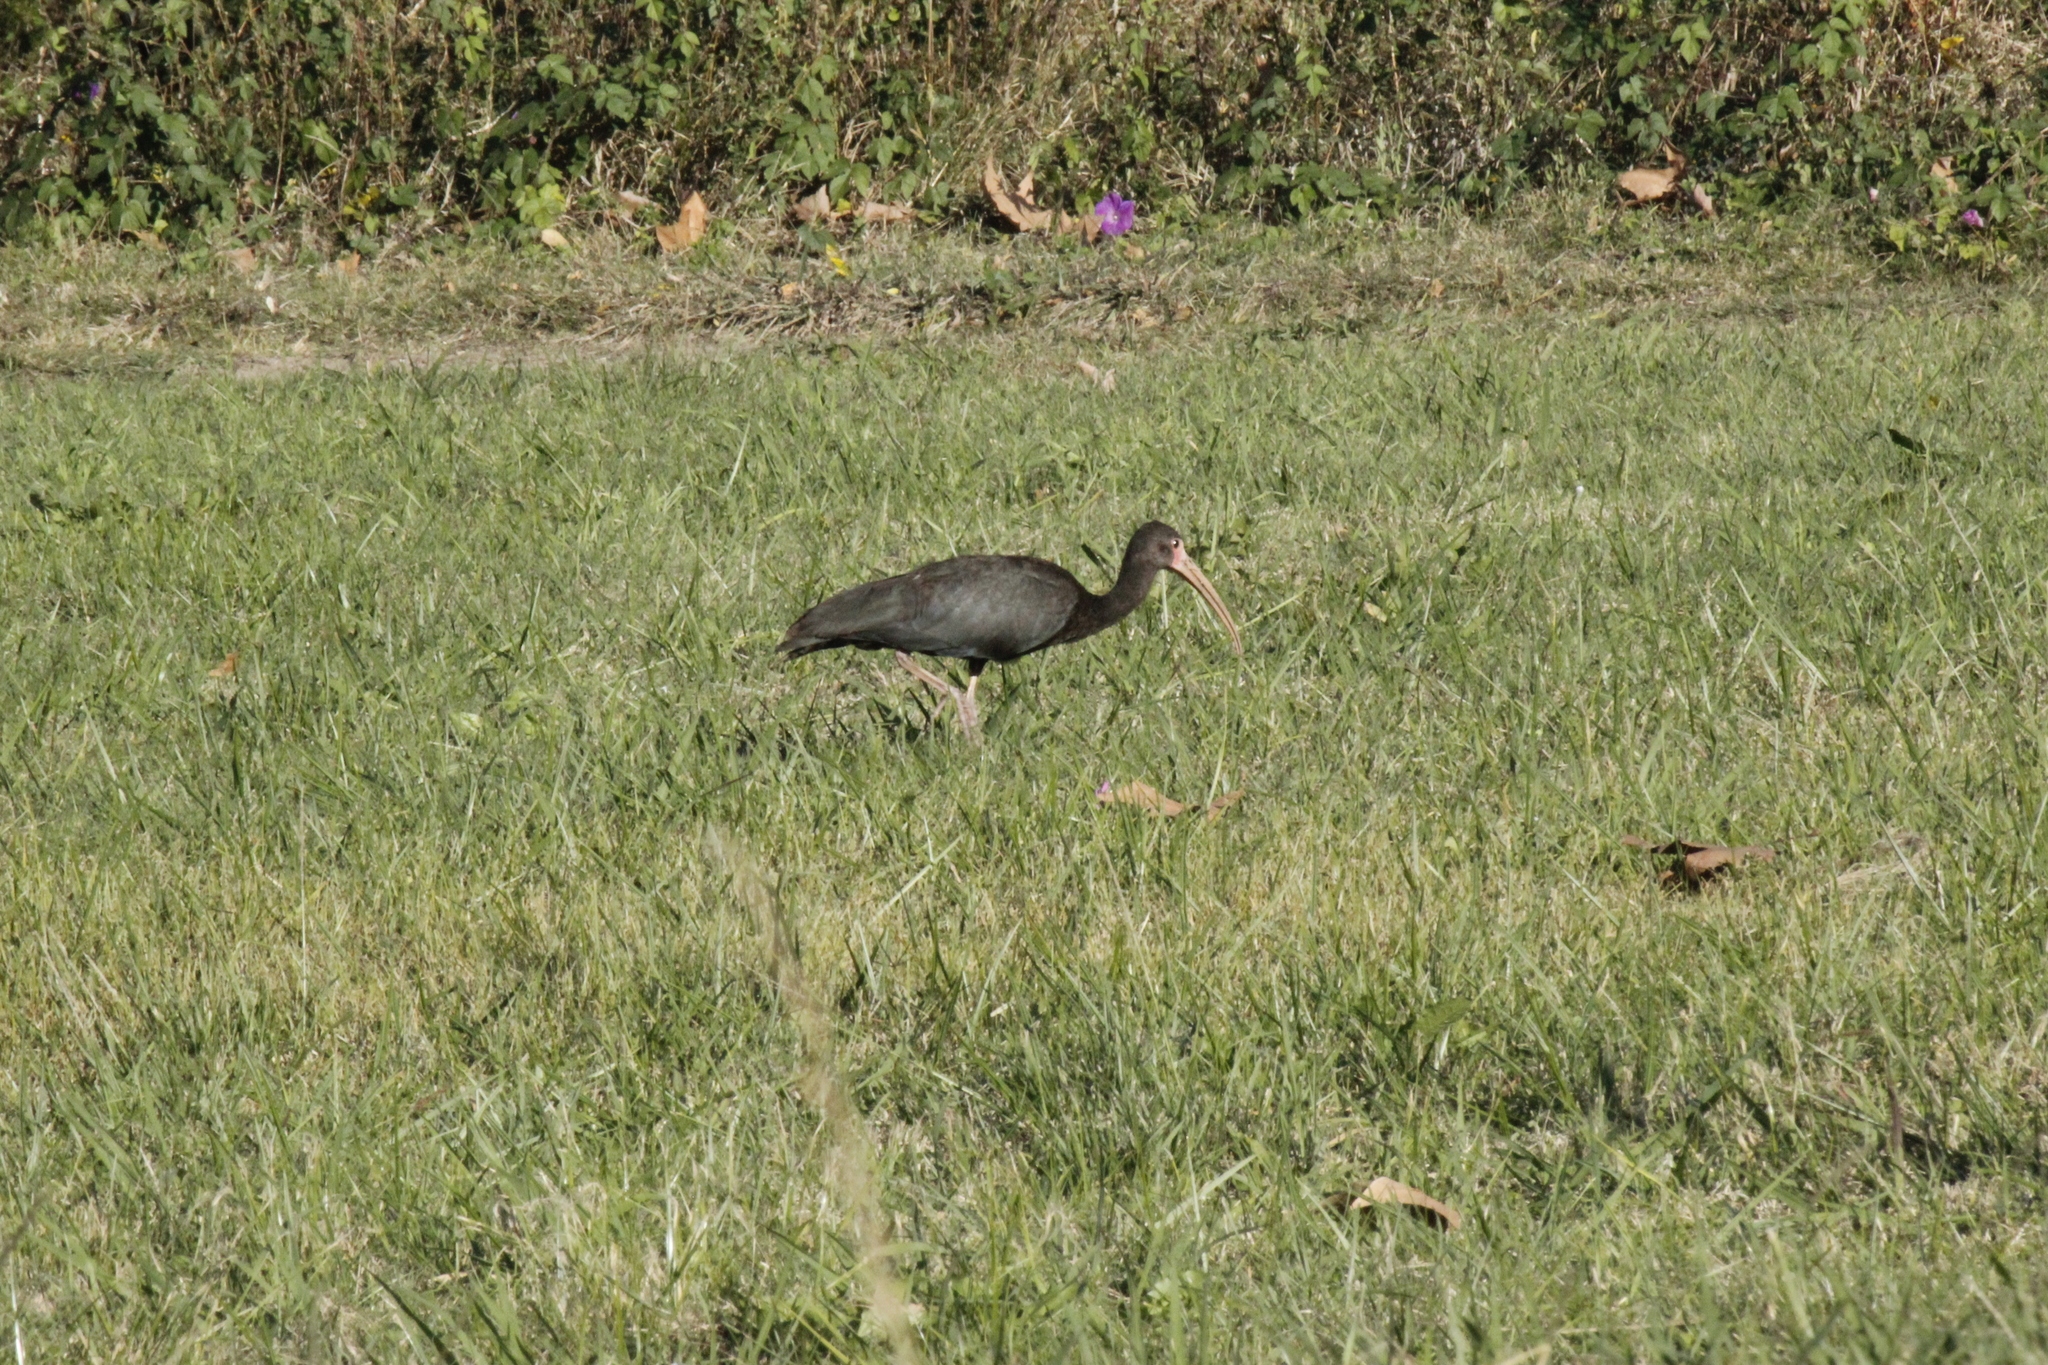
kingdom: Animalia
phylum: Chordata
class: Aves
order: Pelecaniformes
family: Threskiornithidae
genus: Phimosus
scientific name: Phimosus infuscatus
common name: Bare-faced ibis
